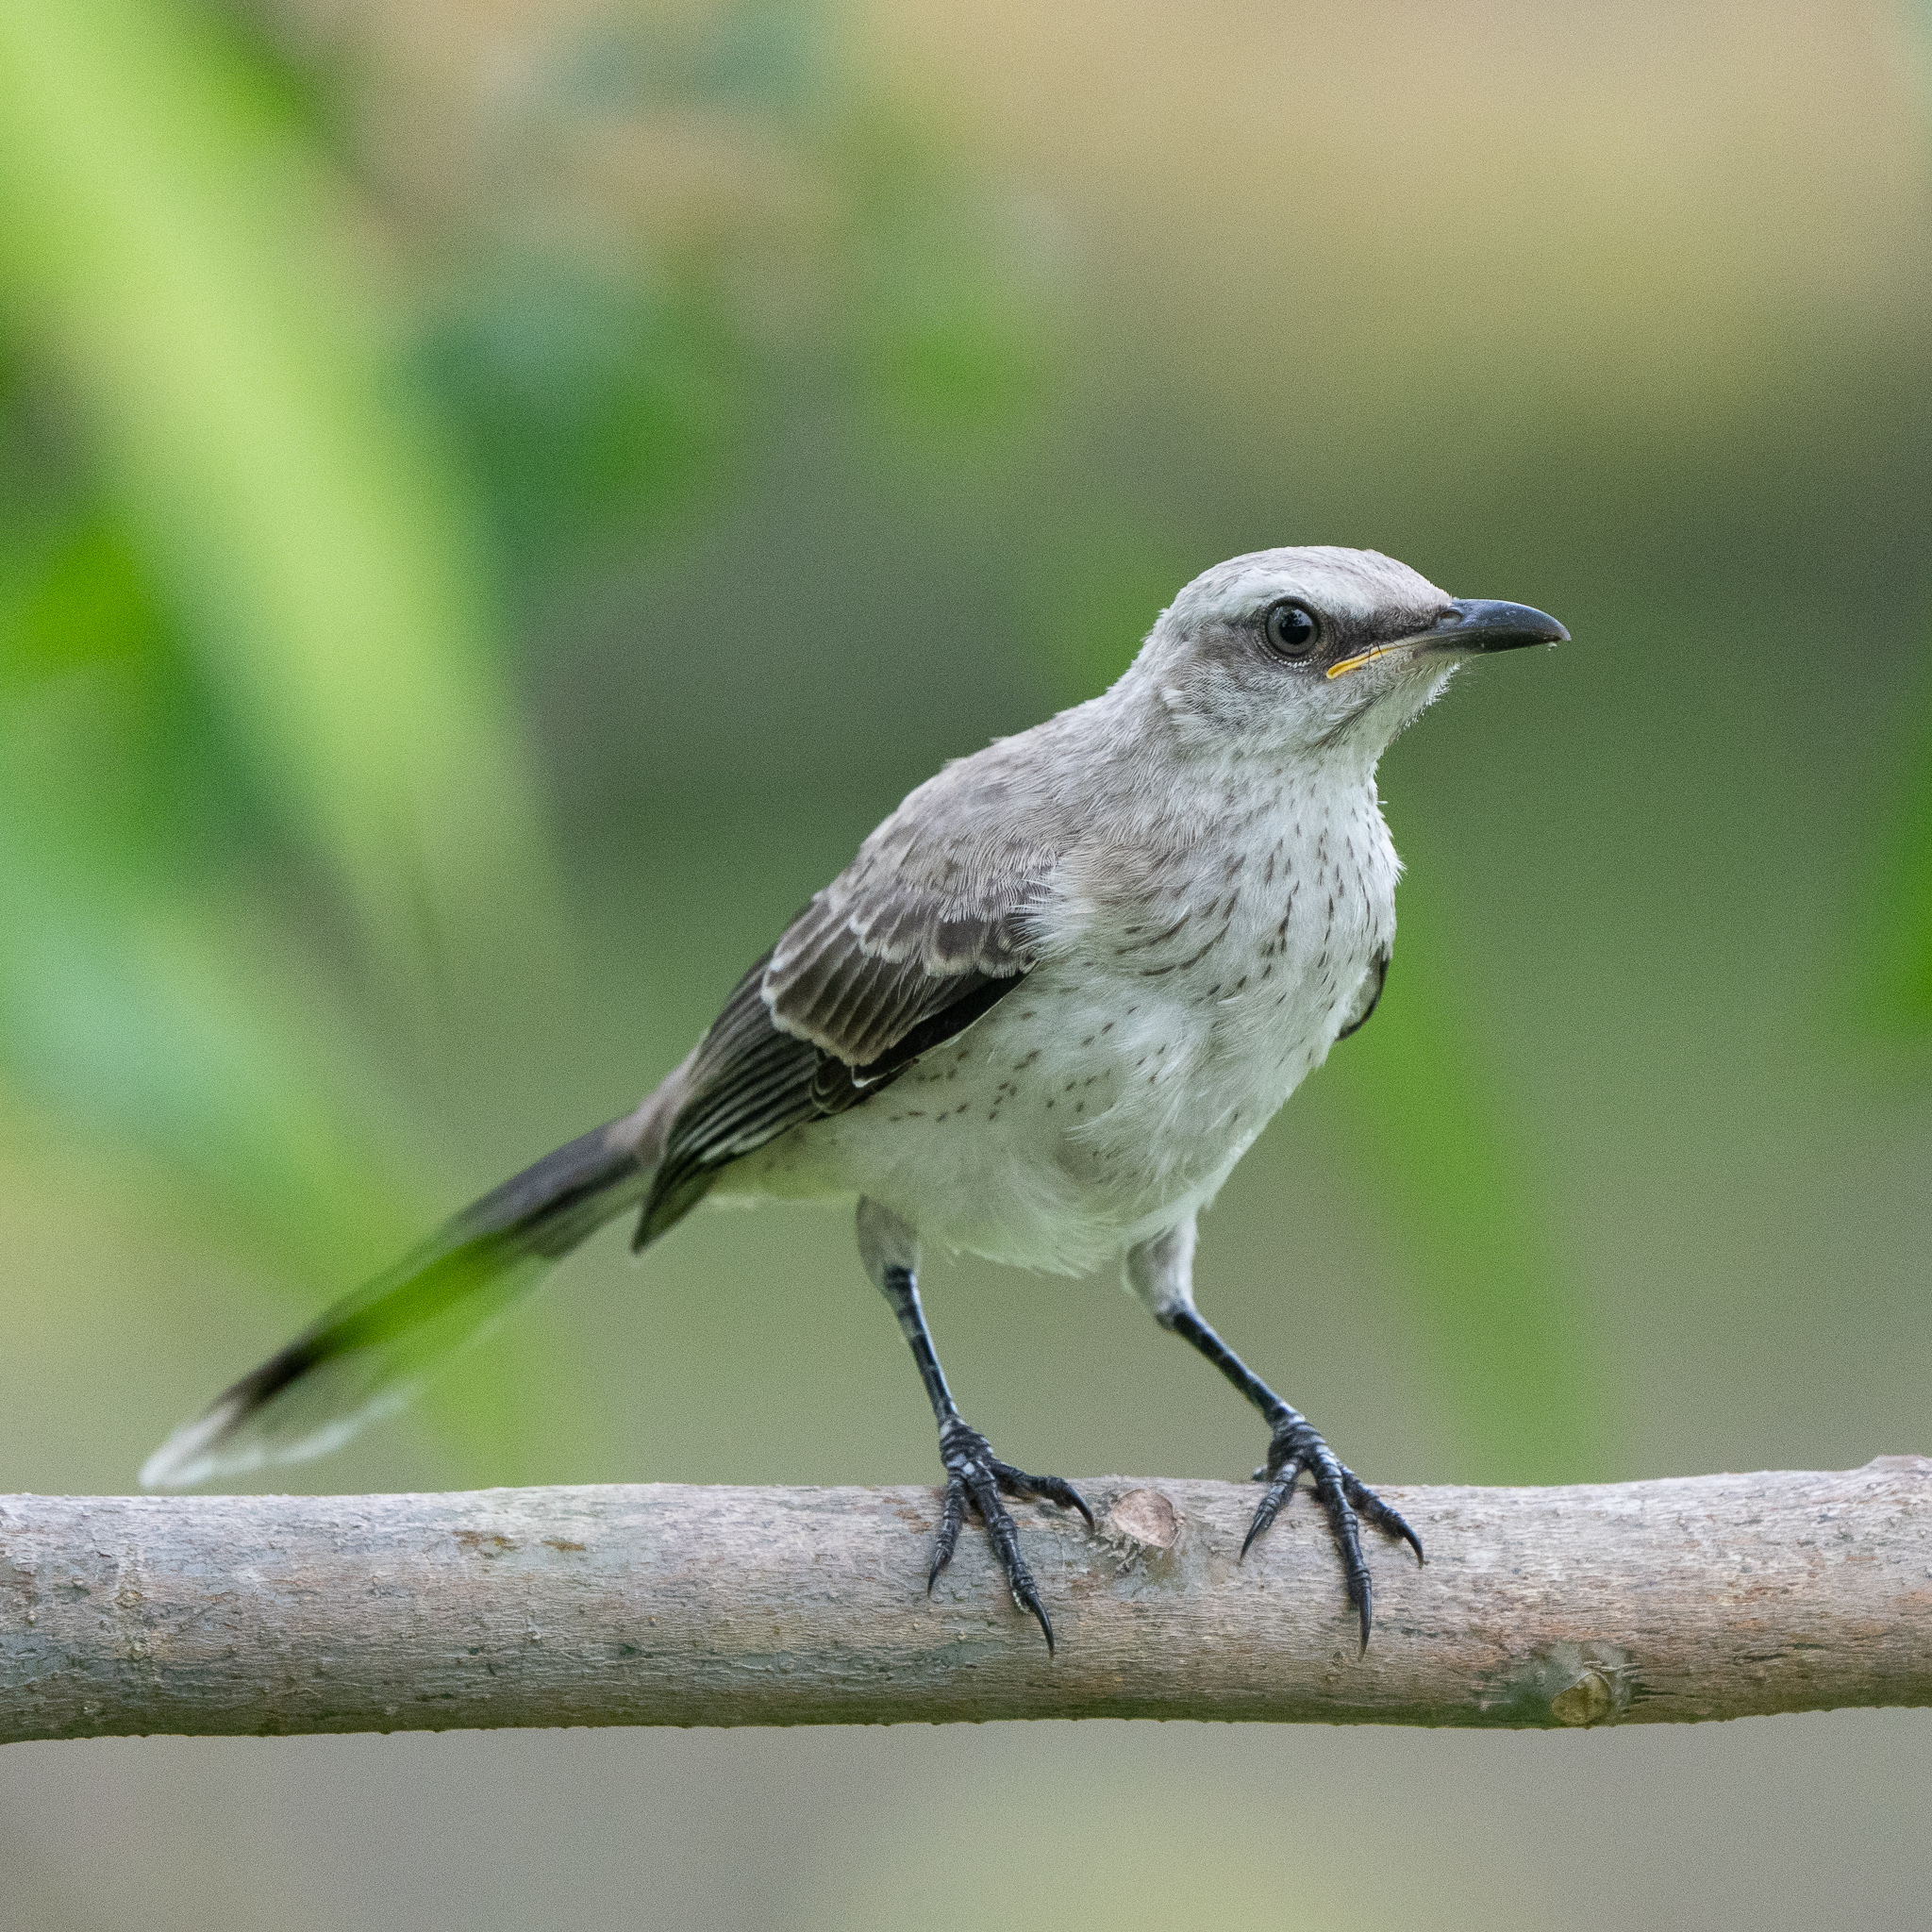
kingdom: Animalia
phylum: Chordata
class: Aves
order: Passeriformes
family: Mimidae
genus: Mimus
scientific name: Mimus gilvus
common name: Tropical mockingbird
